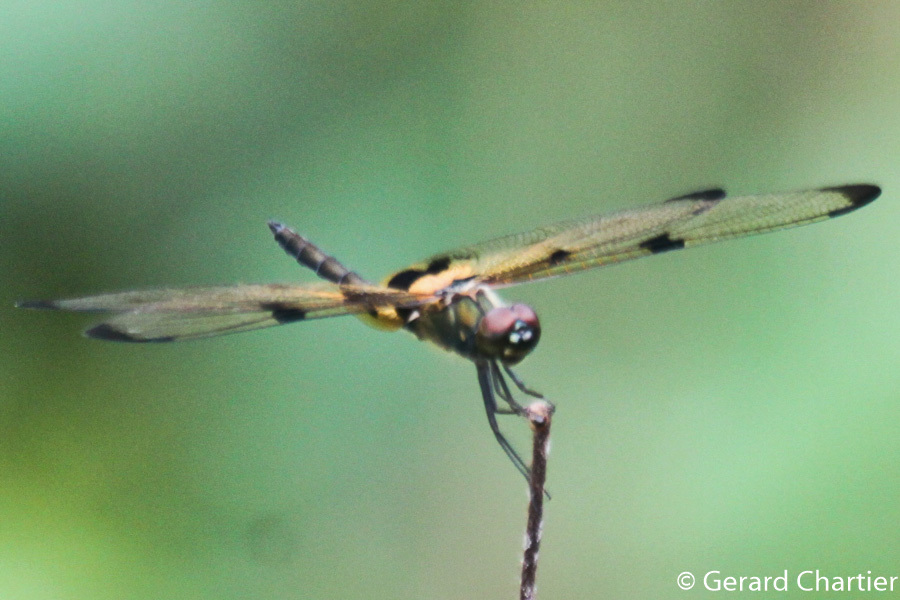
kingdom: Animalia
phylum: Arthropoda
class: Insecta
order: Odonata
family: Libellulidae
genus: Rhyothemis
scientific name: Rhyothemis variegata
